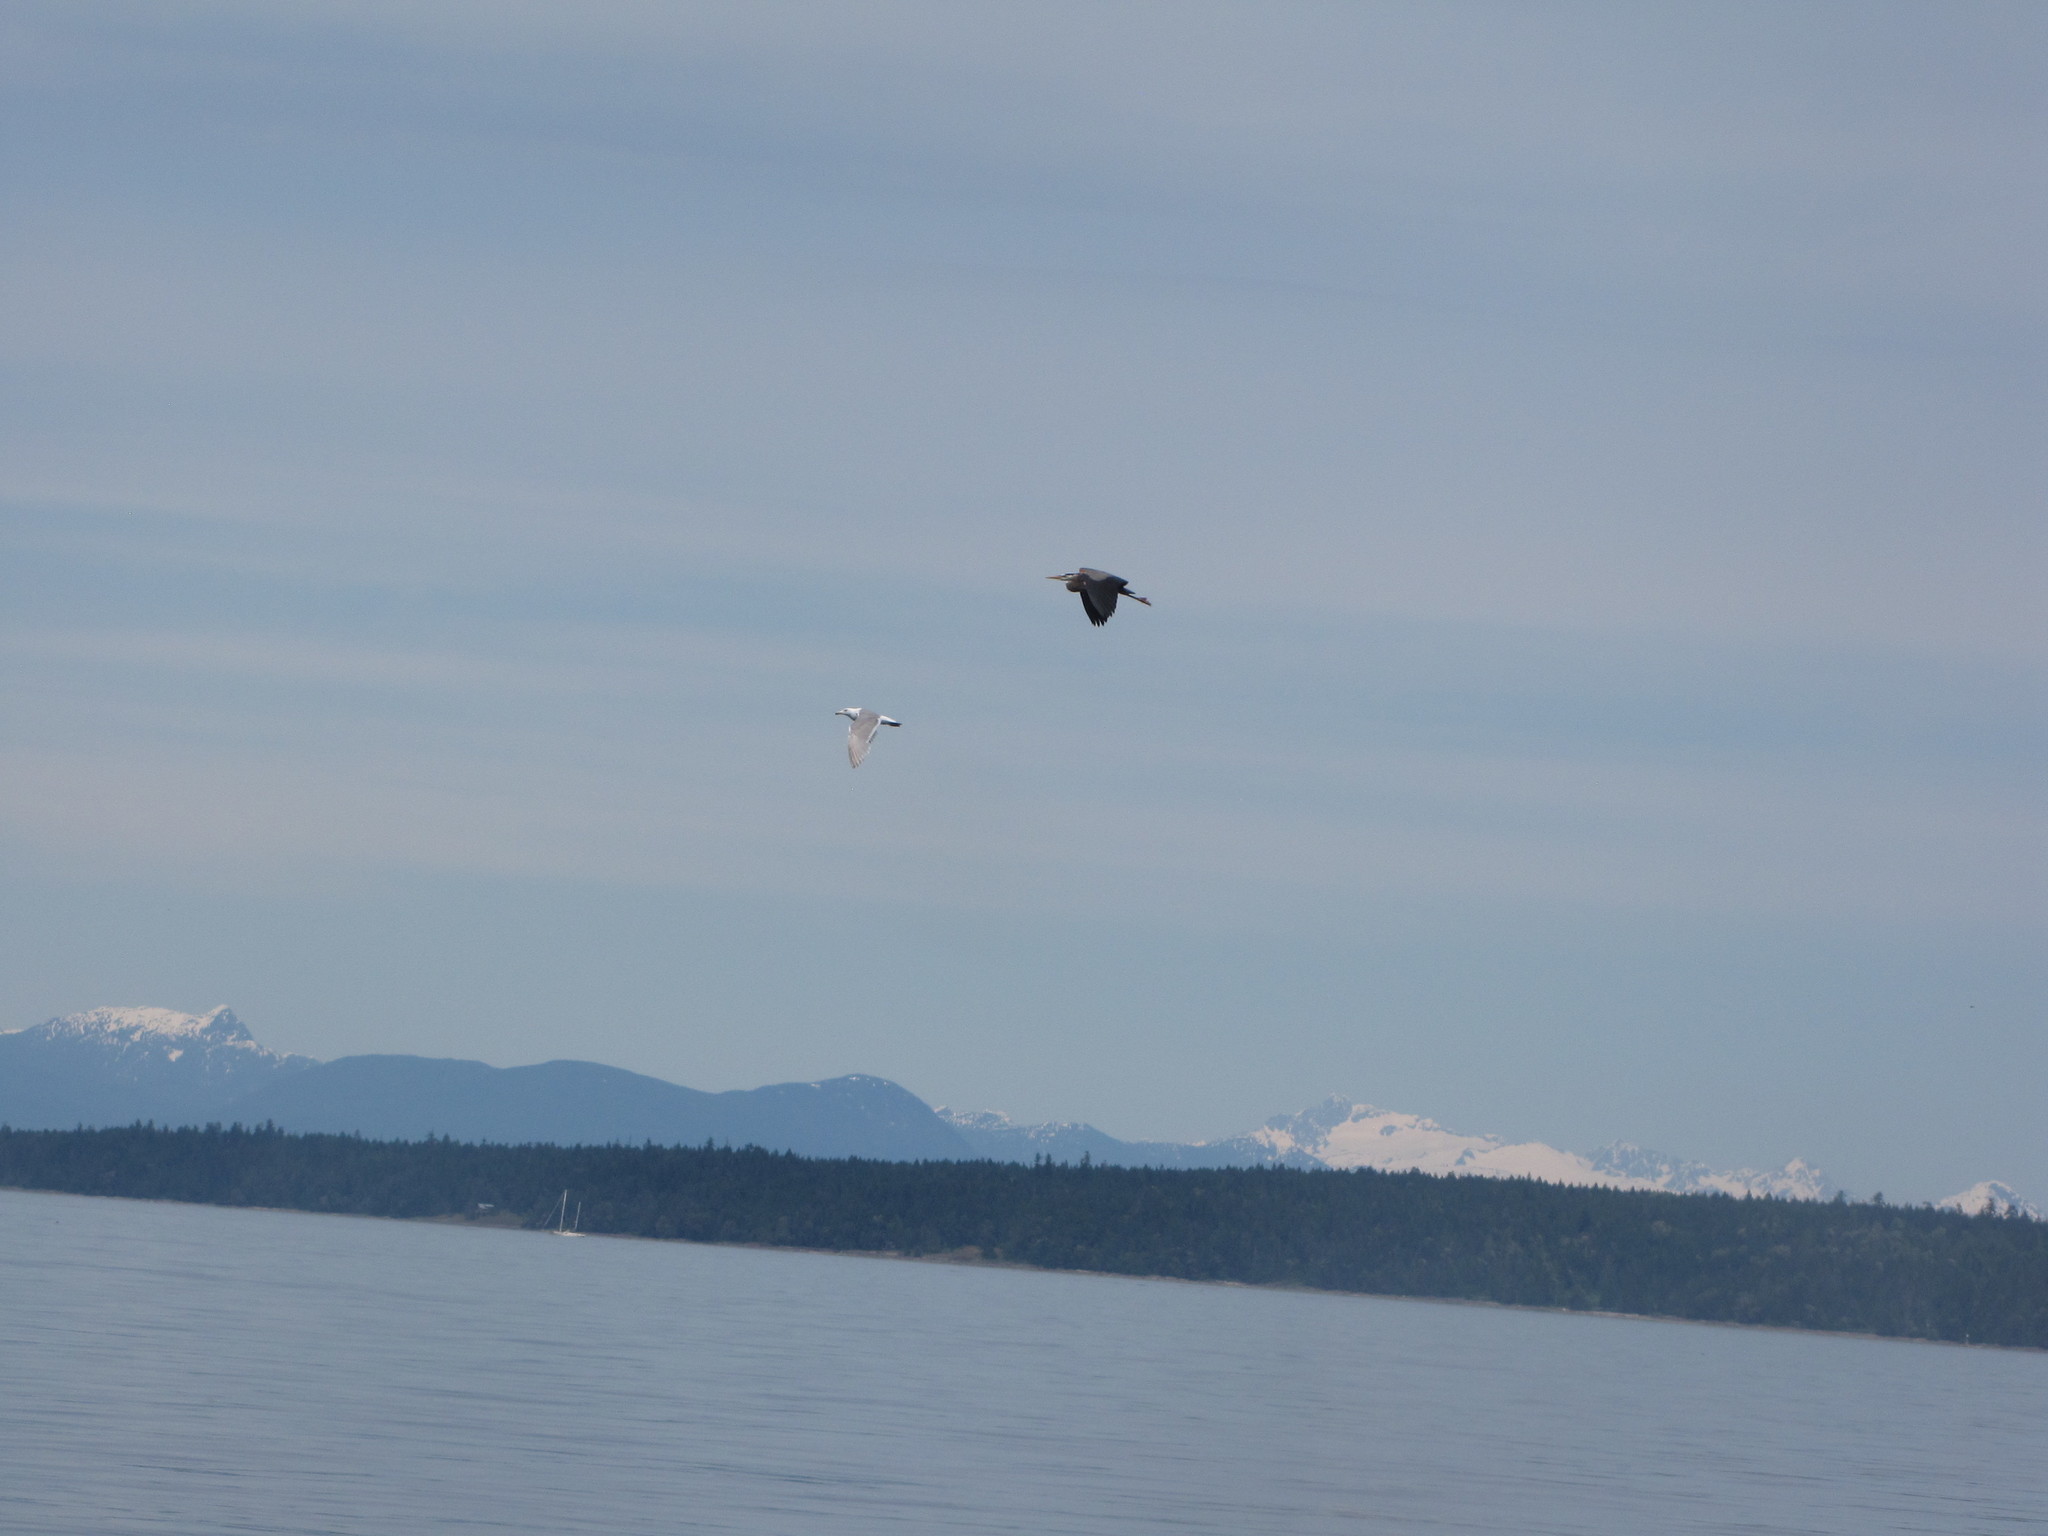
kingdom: Animalia
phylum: Chordata
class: Aves
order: Charadriiformes
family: Laridae
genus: Larus
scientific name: Larus
